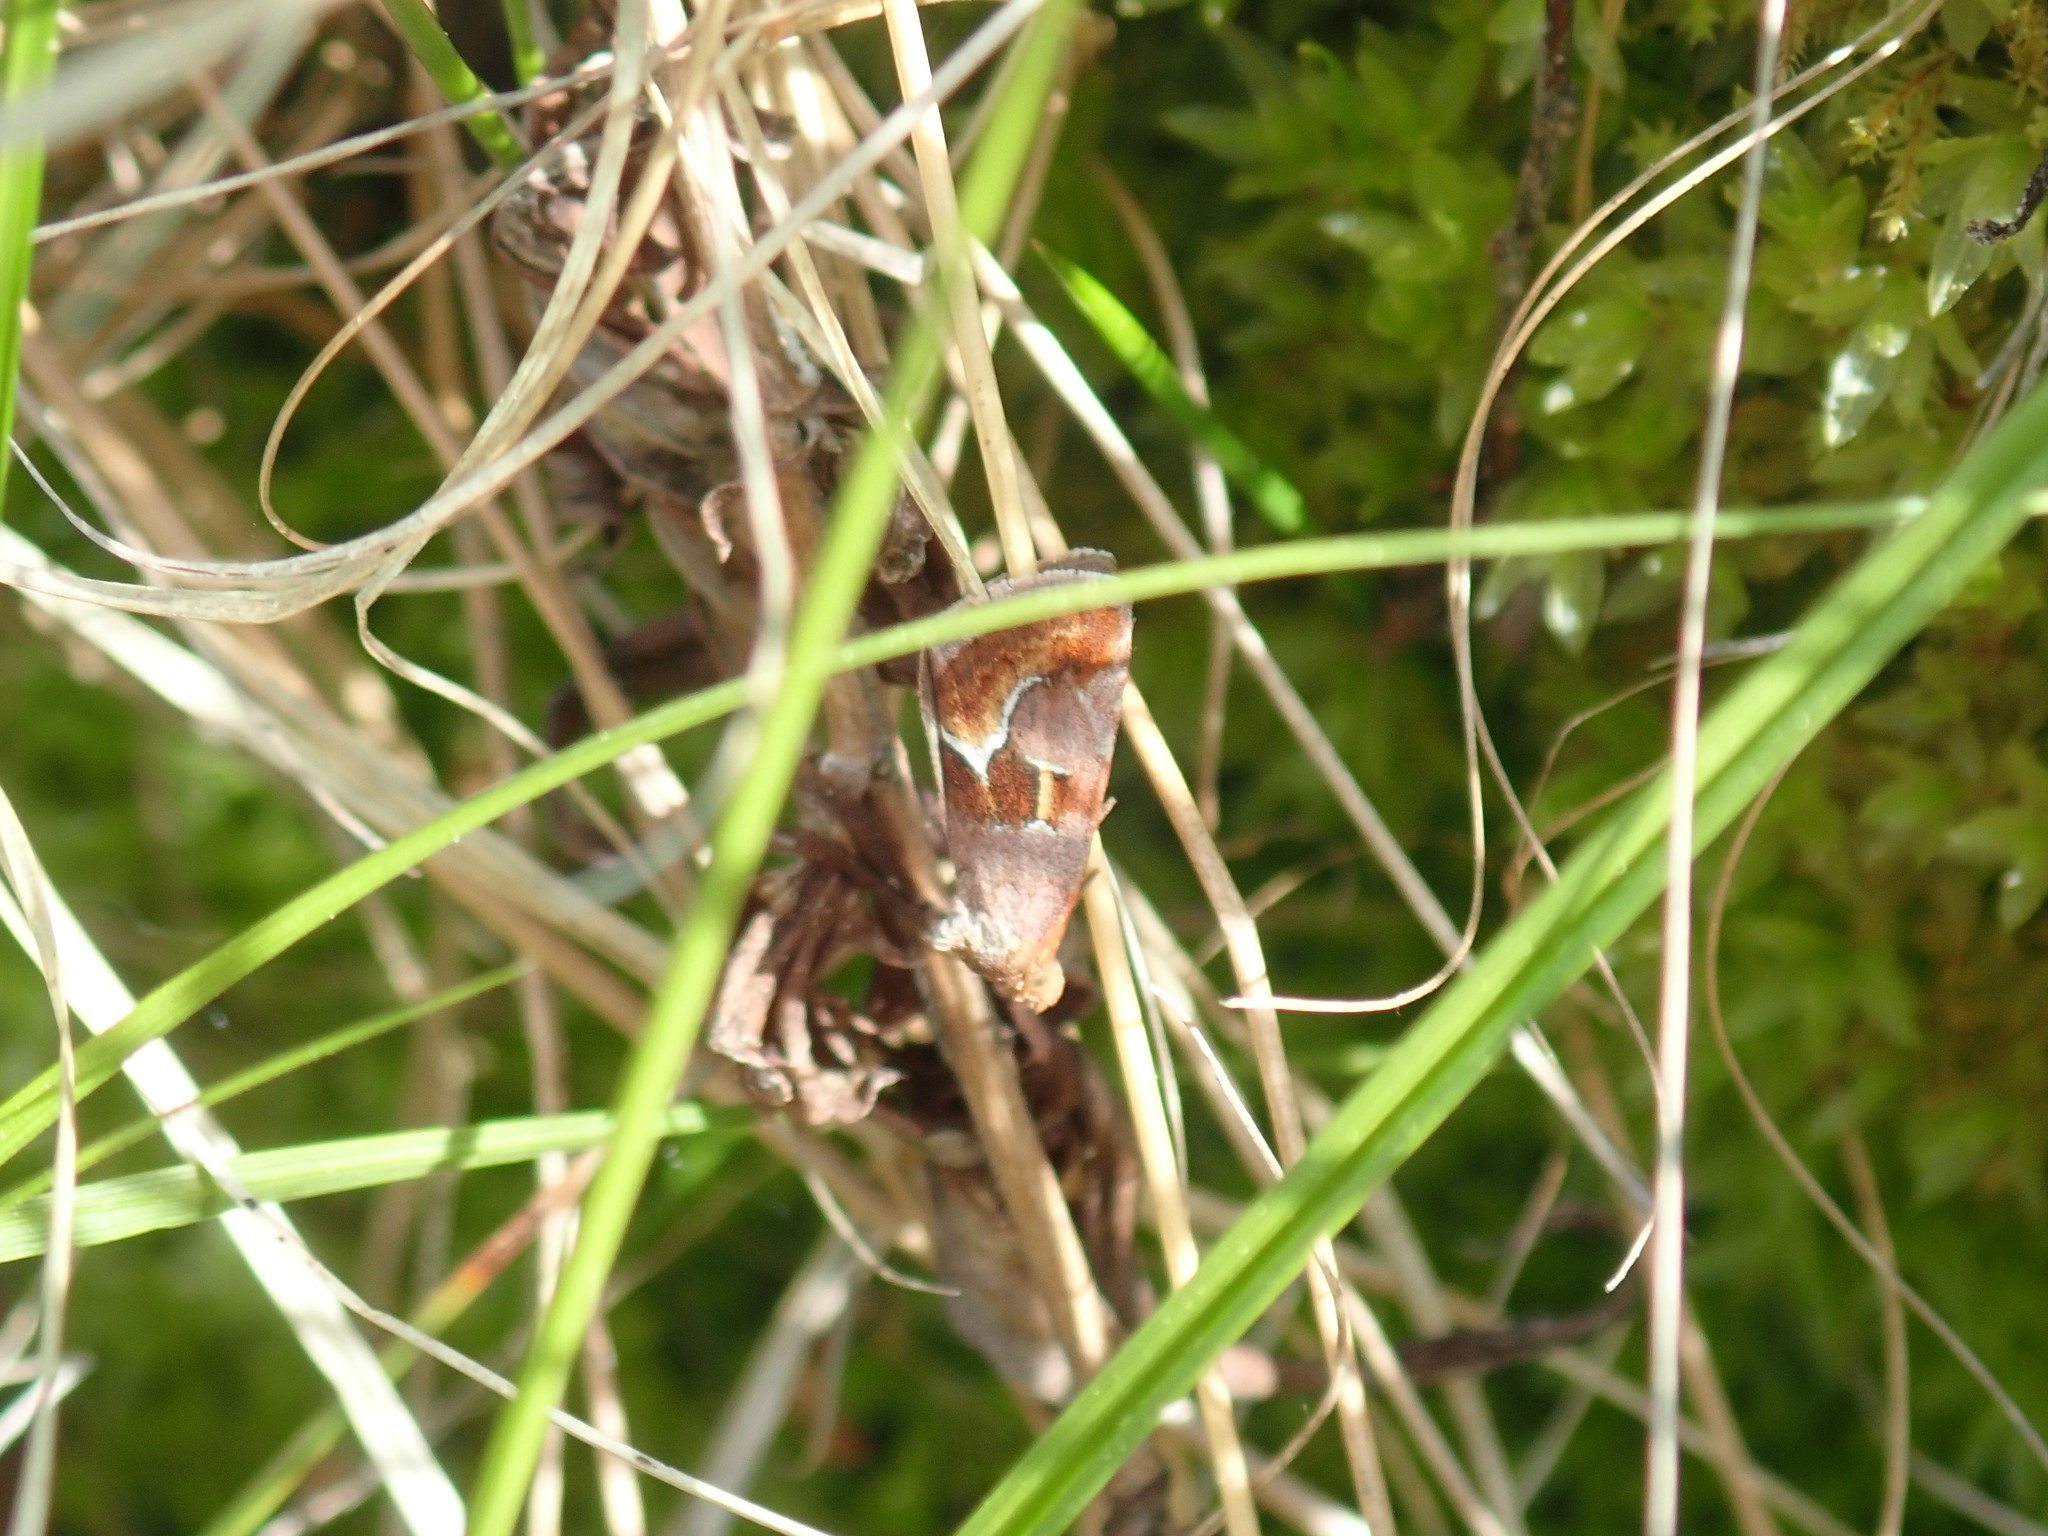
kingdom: Animalia
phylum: Arthropoda
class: Insecta
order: Lepidoptera
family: Noctuidae
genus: Deltote
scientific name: Deltote bellicula
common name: Bog glyph
